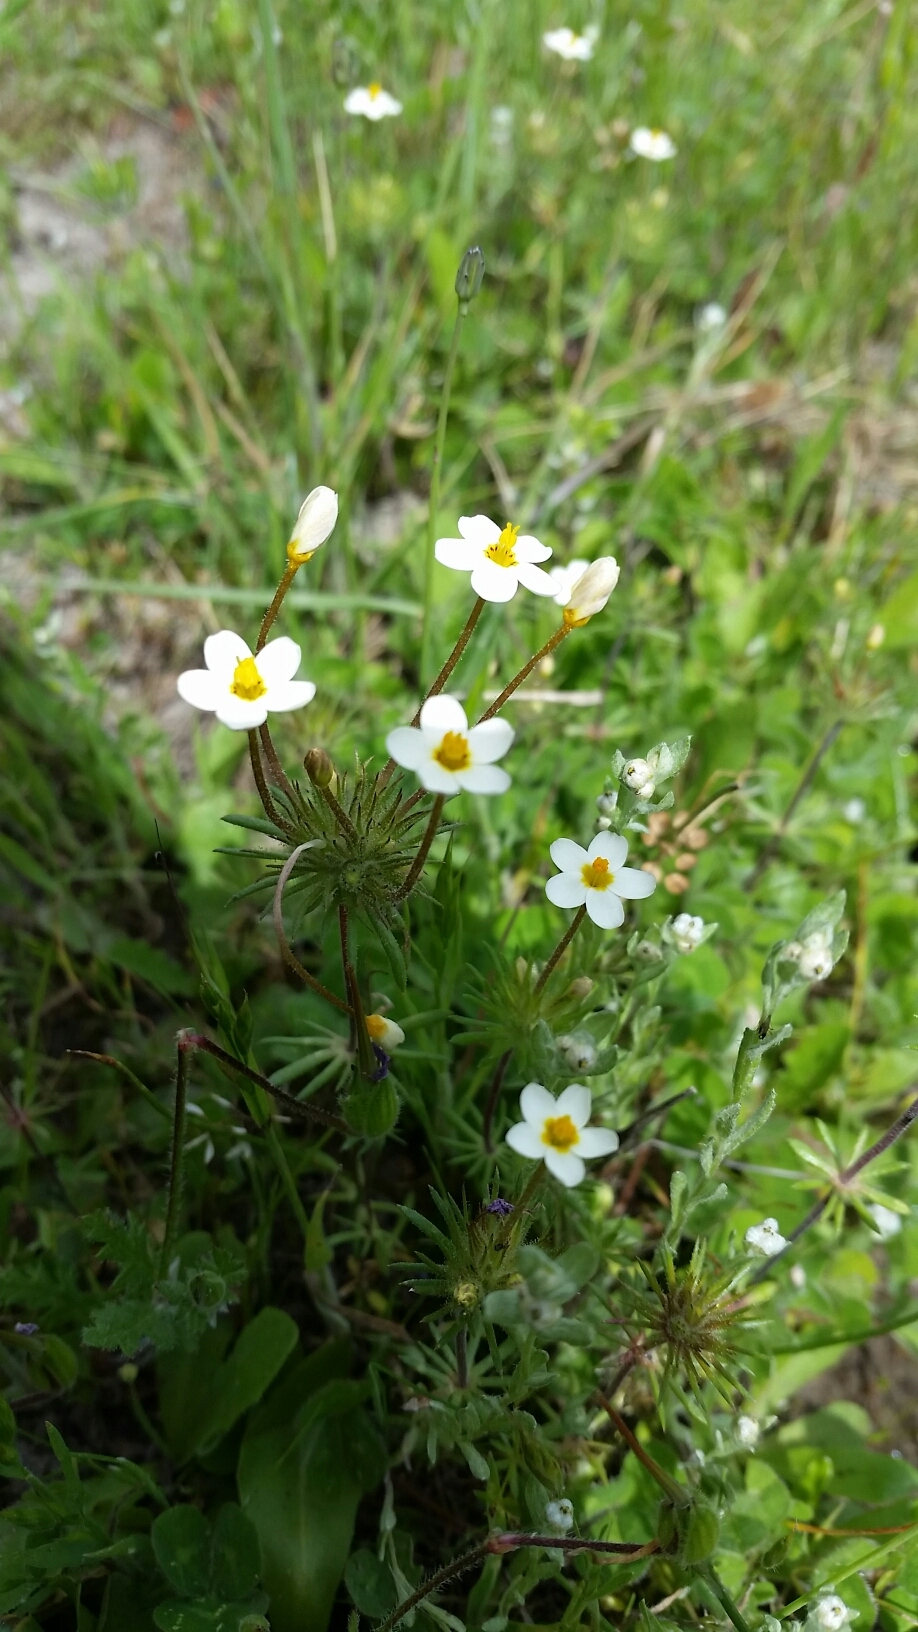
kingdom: Plantae
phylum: Tracheophyta
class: Magnoliopsida
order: Ericales
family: Polemoniaceae
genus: Leptosiphon
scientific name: Leptosiphon parviflorus
